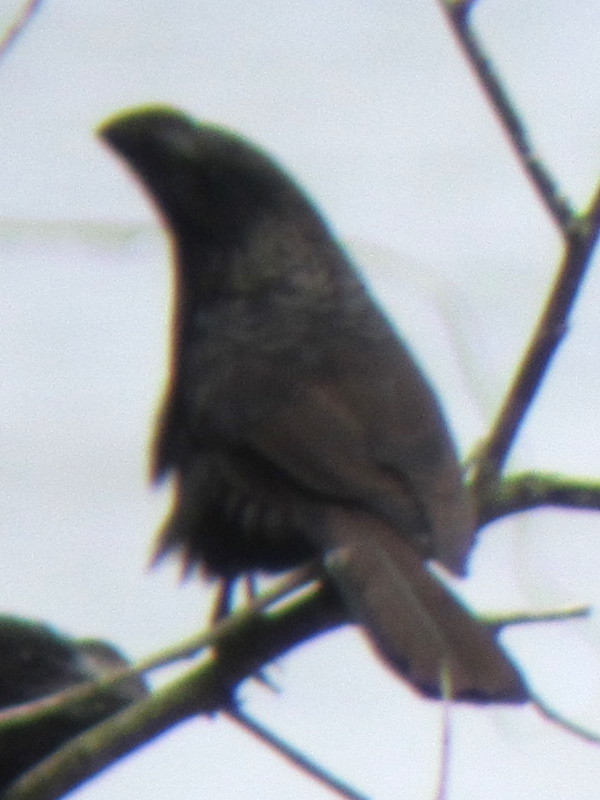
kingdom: Animalia
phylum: Chordata
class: Aves
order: Cuculiformes
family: Cuculidae
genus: Crotophaga
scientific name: Crotophaga ani
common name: Smooth-billed ani
